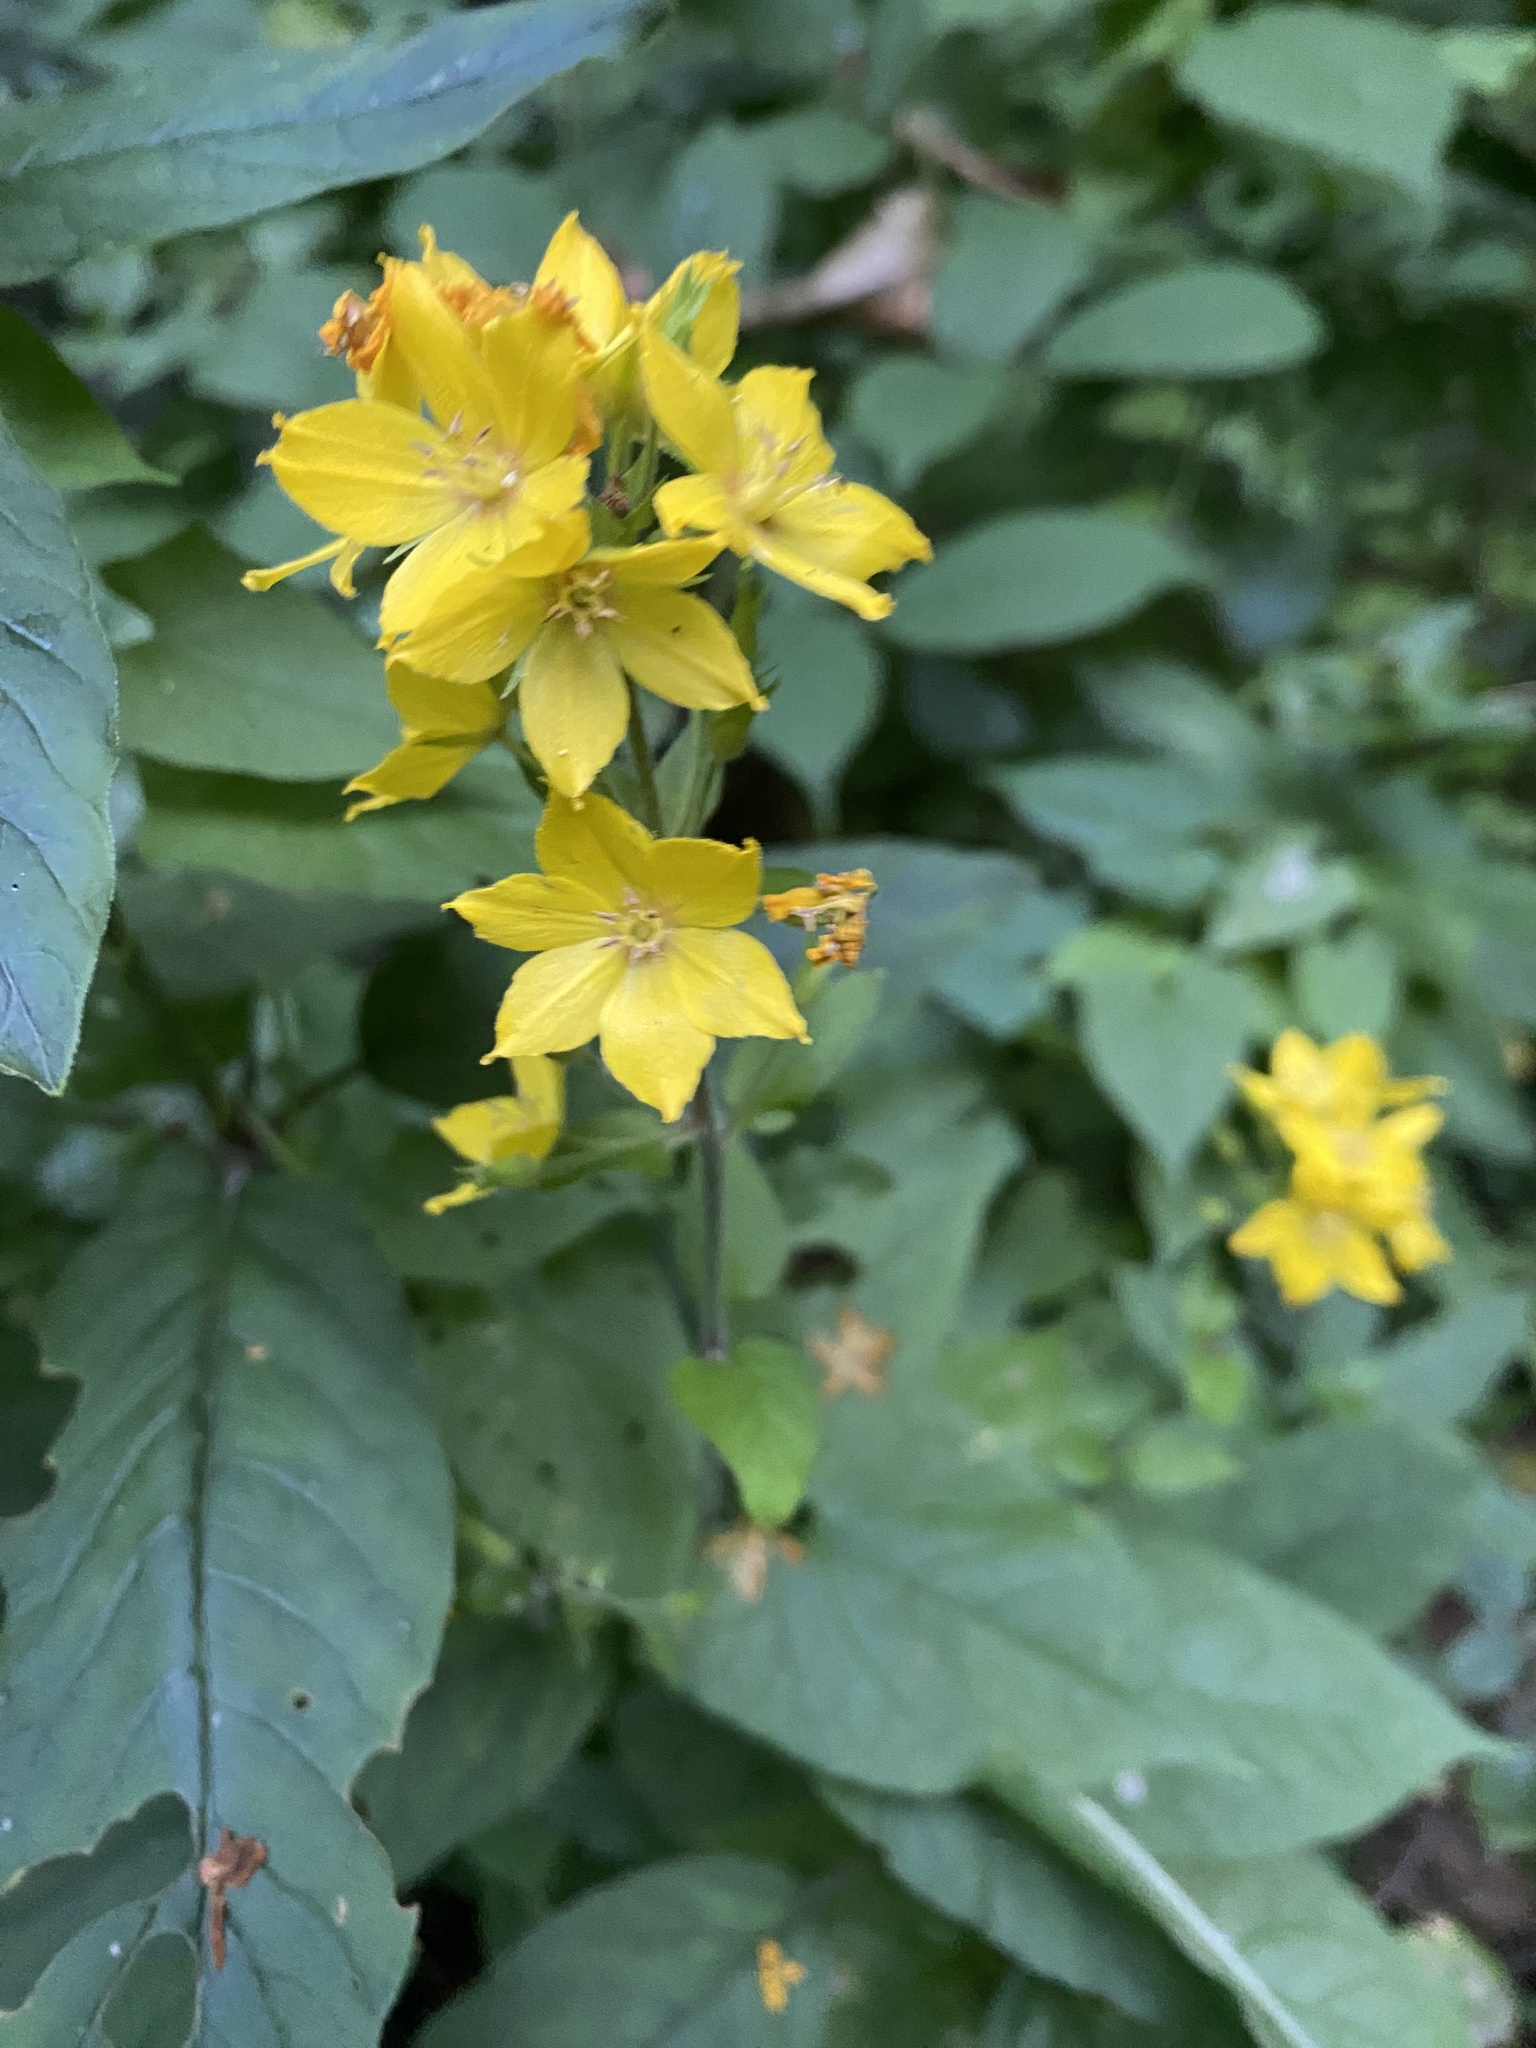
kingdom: Plantae
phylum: Tracheophyta
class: Magnoliopsida
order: Ericales
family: Primulaceae
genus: Lysimachia
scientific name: Lysimachia verticillaris
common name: Yellow loosestrife
